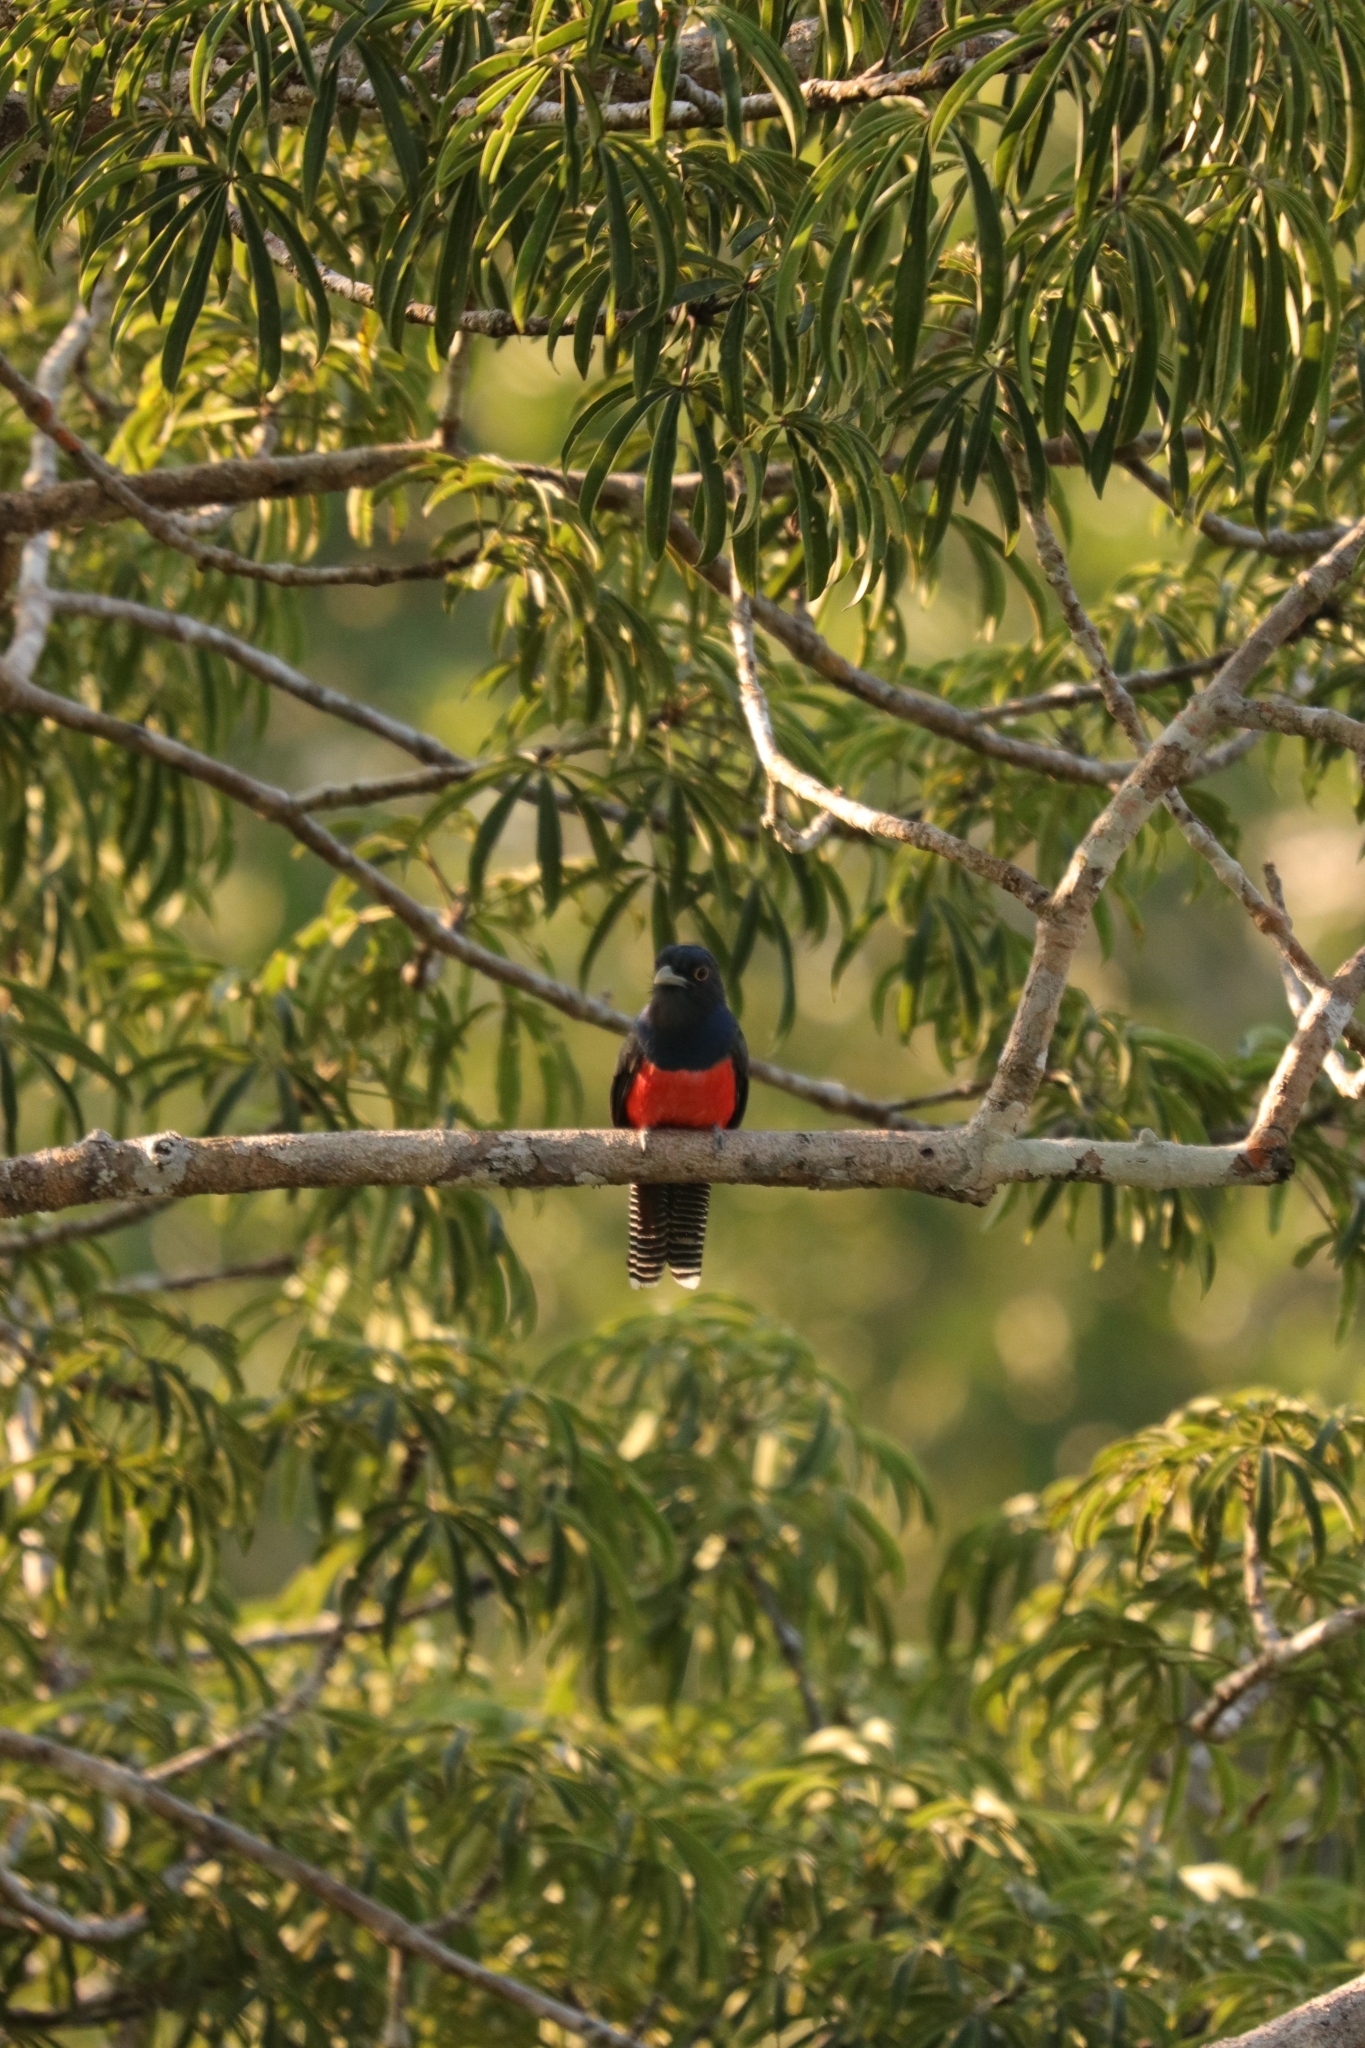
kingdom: Animalia
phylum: Chordata
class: Aves
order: Trogoniformes
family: Trogonidae
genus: Trogon
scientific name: Trogon curucui
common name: Blue-crowned trogon
